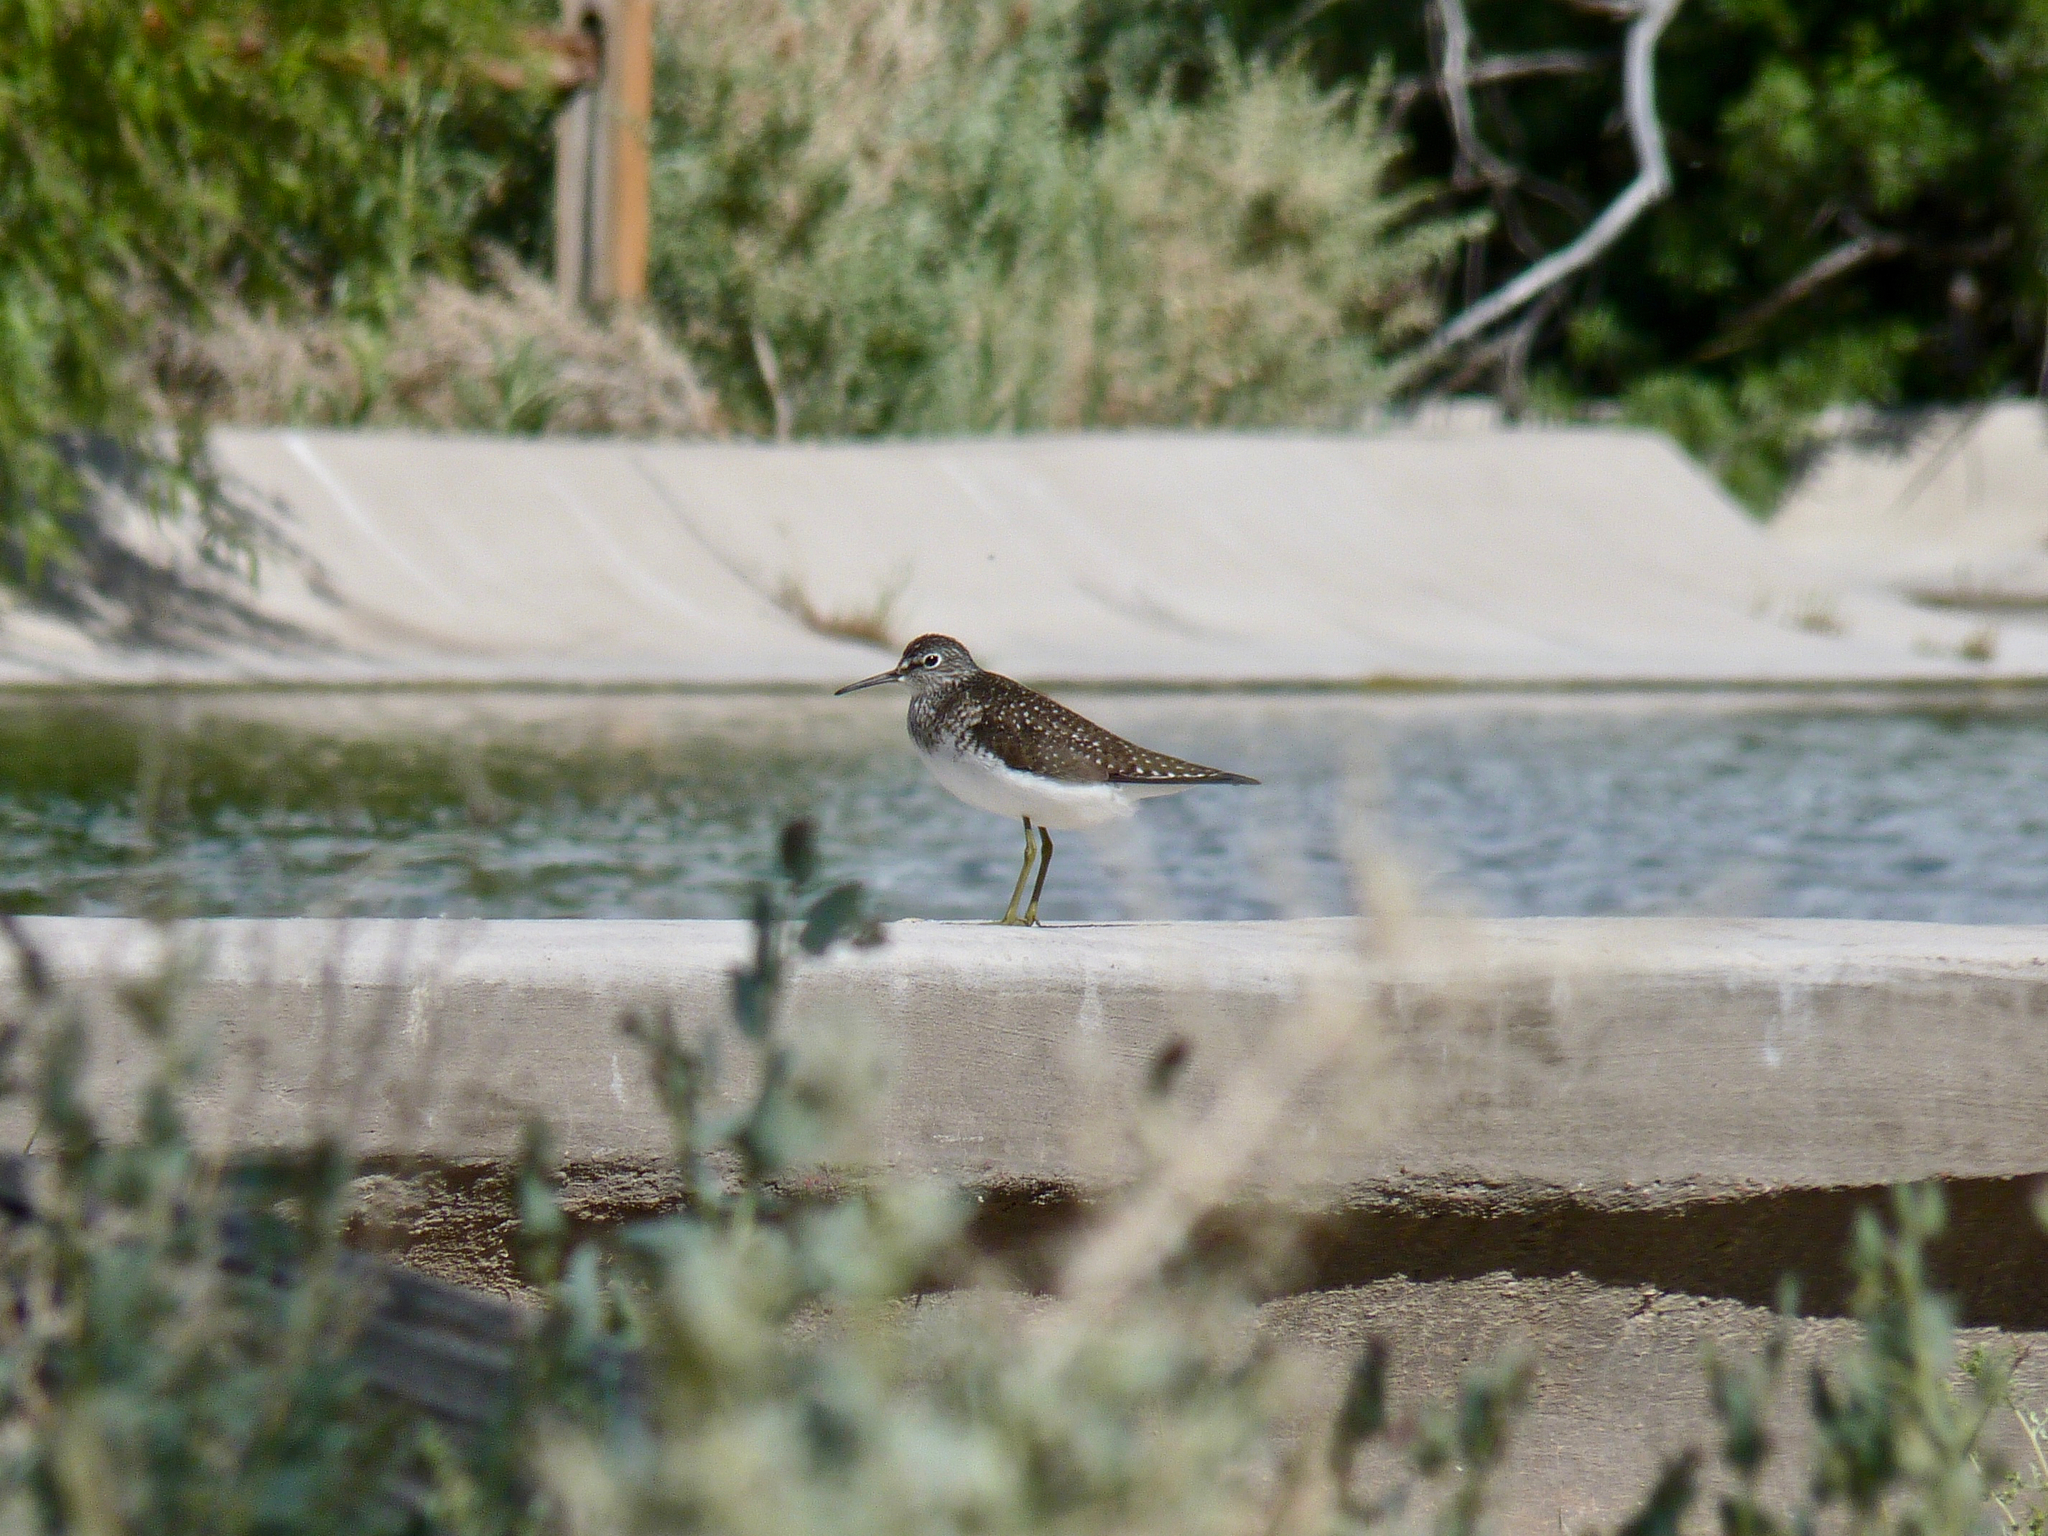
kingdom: Animalia
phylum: Chordata
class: Aves
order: Charadriiformes
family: Scolopacidae
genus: Tringa
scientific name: Tringa solitaria
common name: Solitary sandpiper
